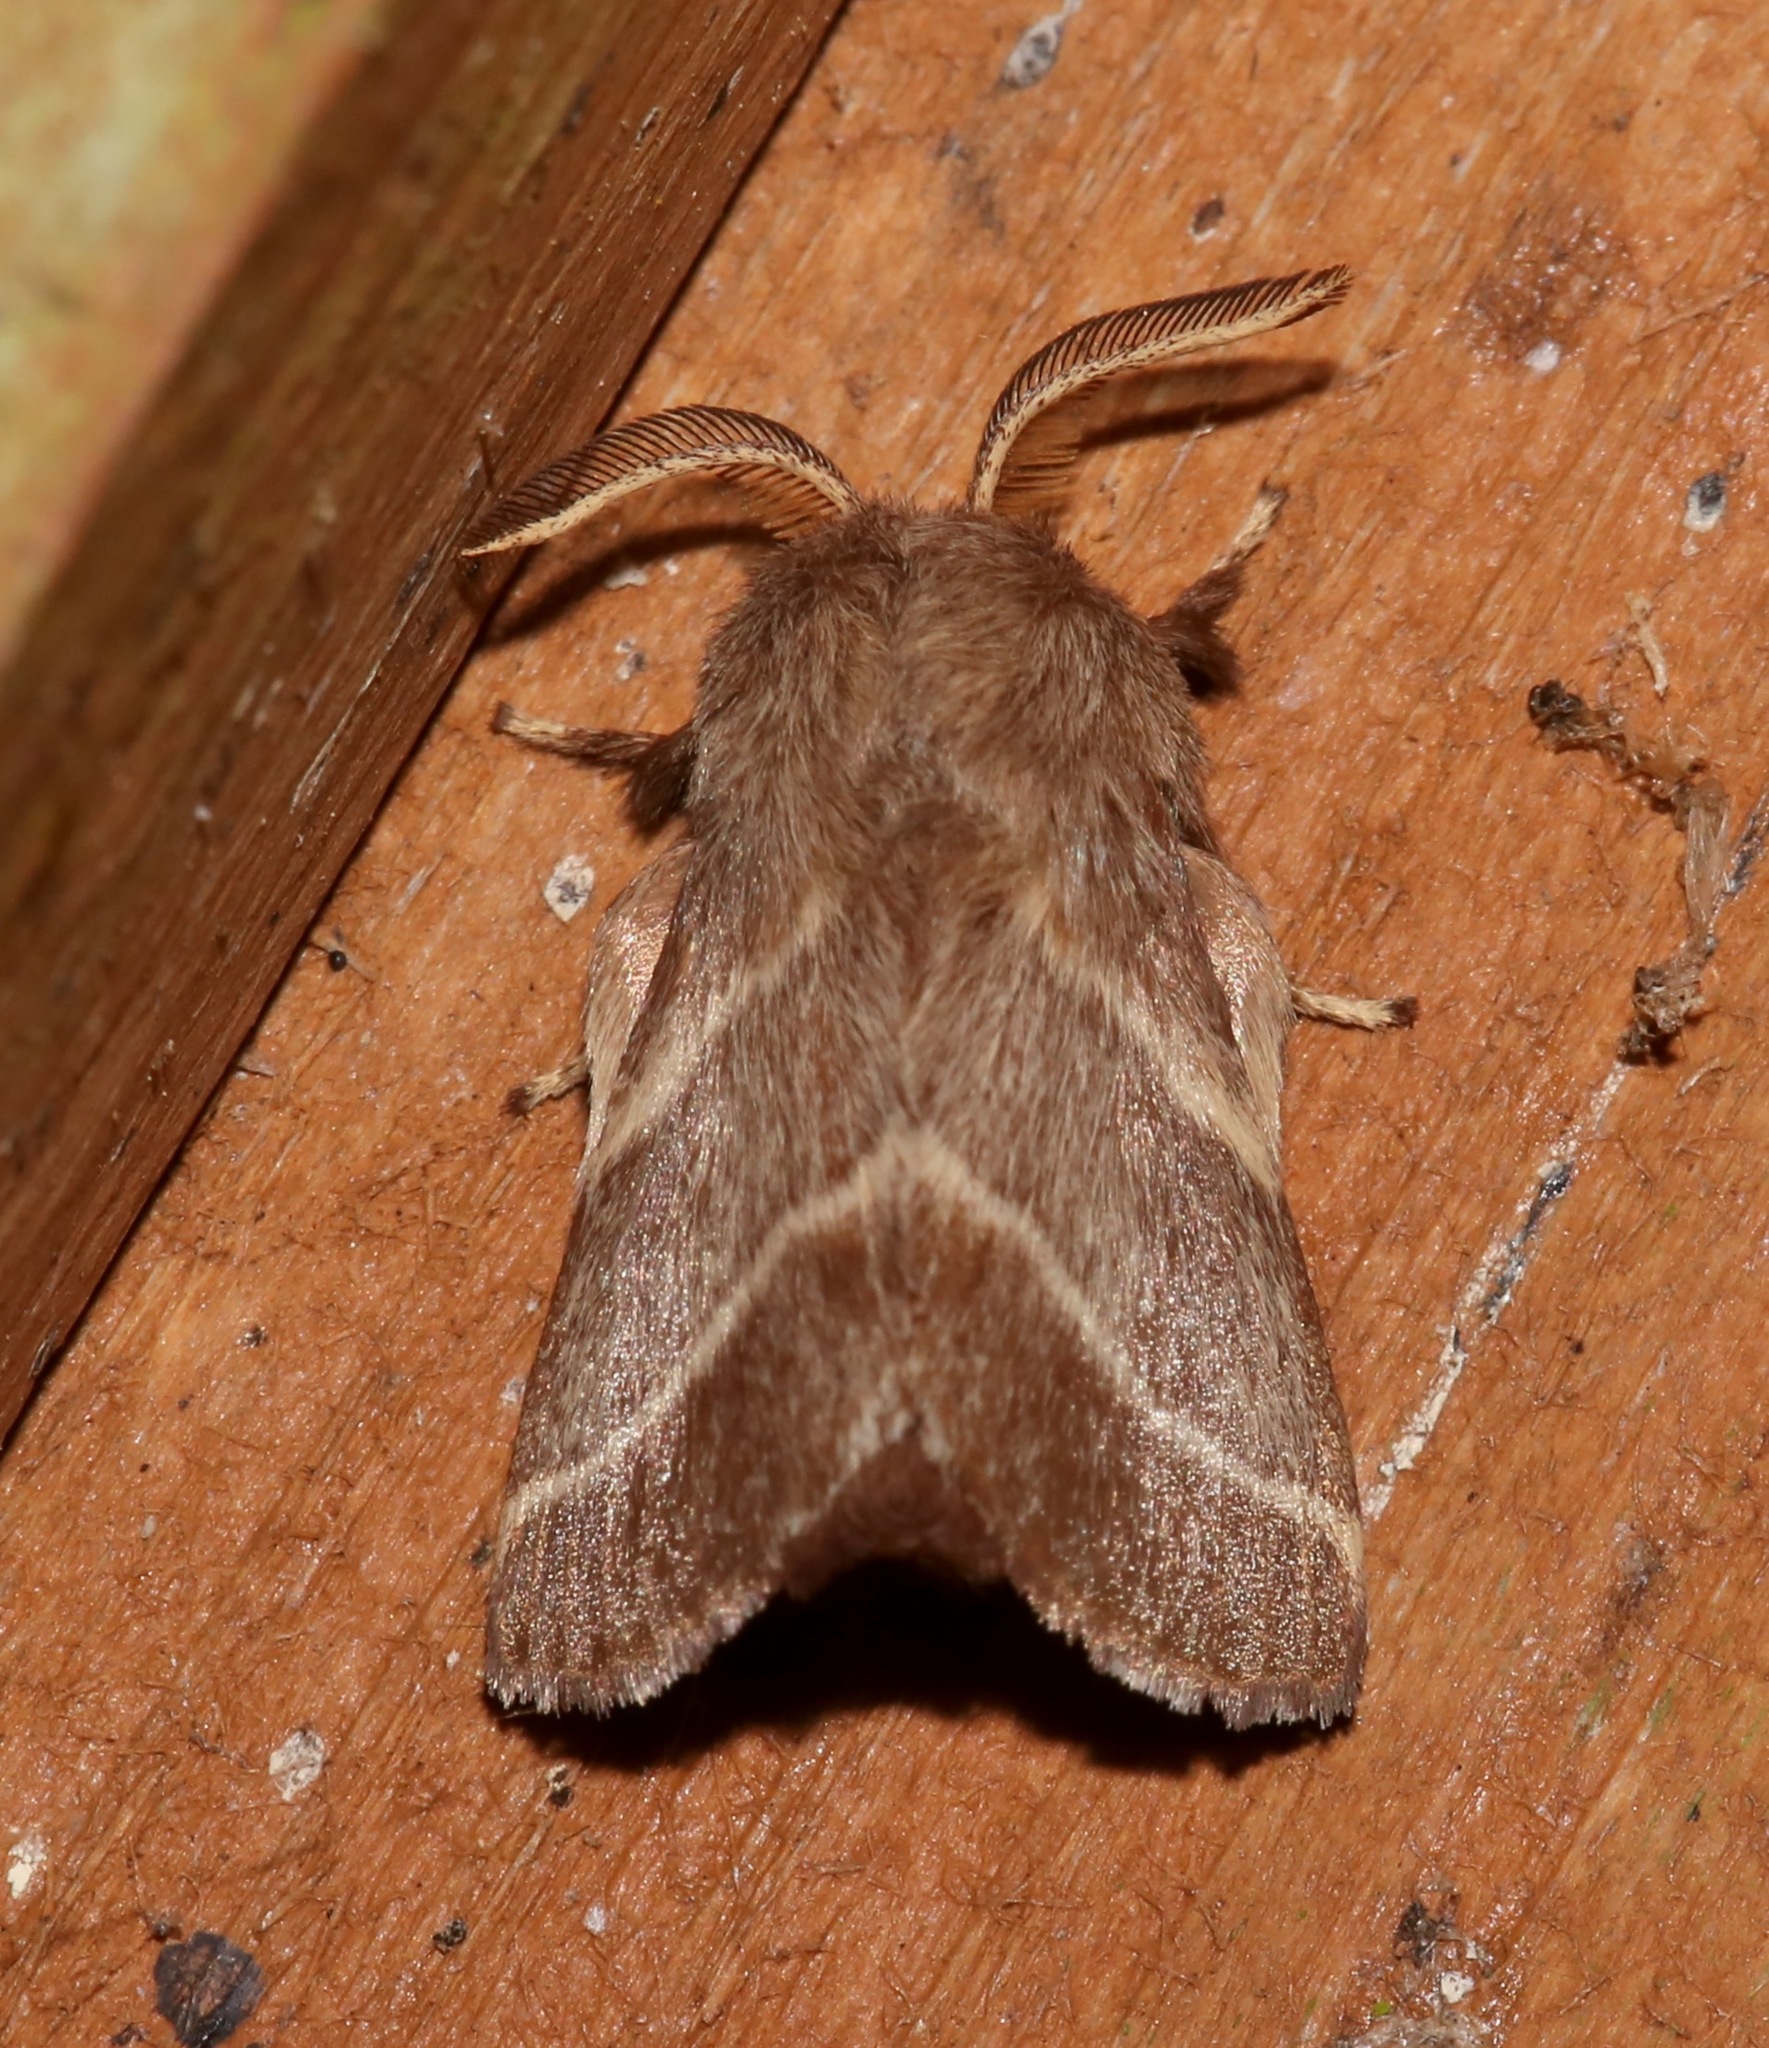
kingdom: Animalia
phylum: Arthropoda
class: Insecta
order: Lepidoptera
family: Lasiocampidae
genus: Malacosoma
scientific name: Malacosoma americana
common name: Eastern tent caterpillar moth
